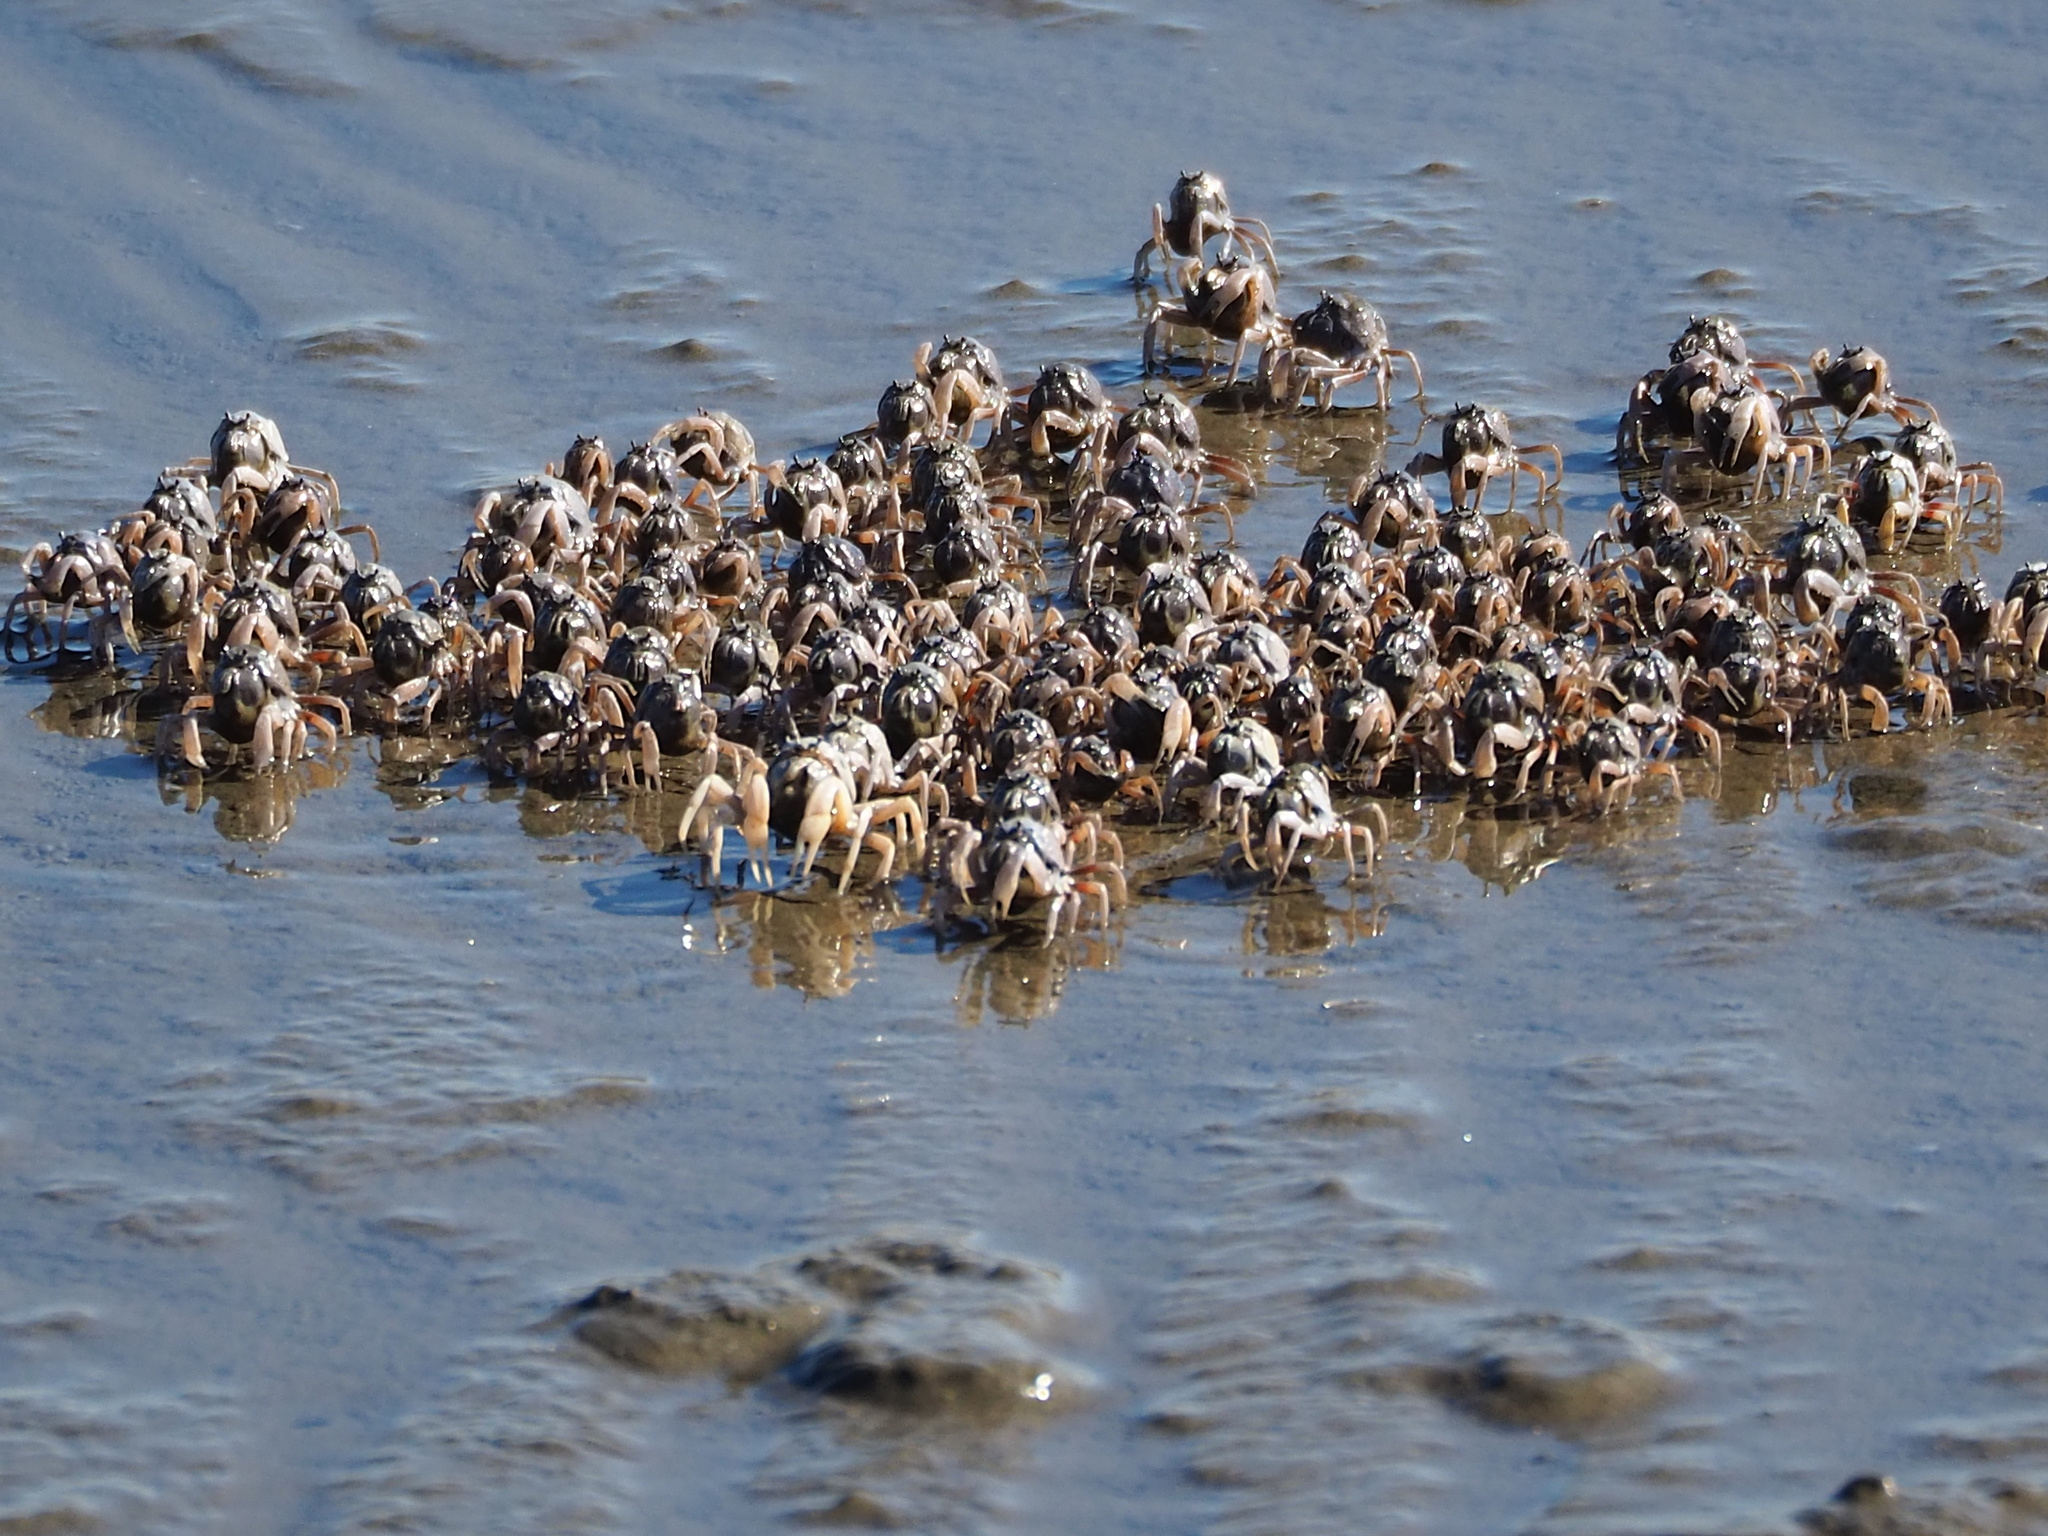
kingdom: Animalia
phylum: Arthropoda
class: Malacostraca
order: Decapoda
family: Mictyridae
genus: Mictyris
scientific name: Mictyris brevidactylus
